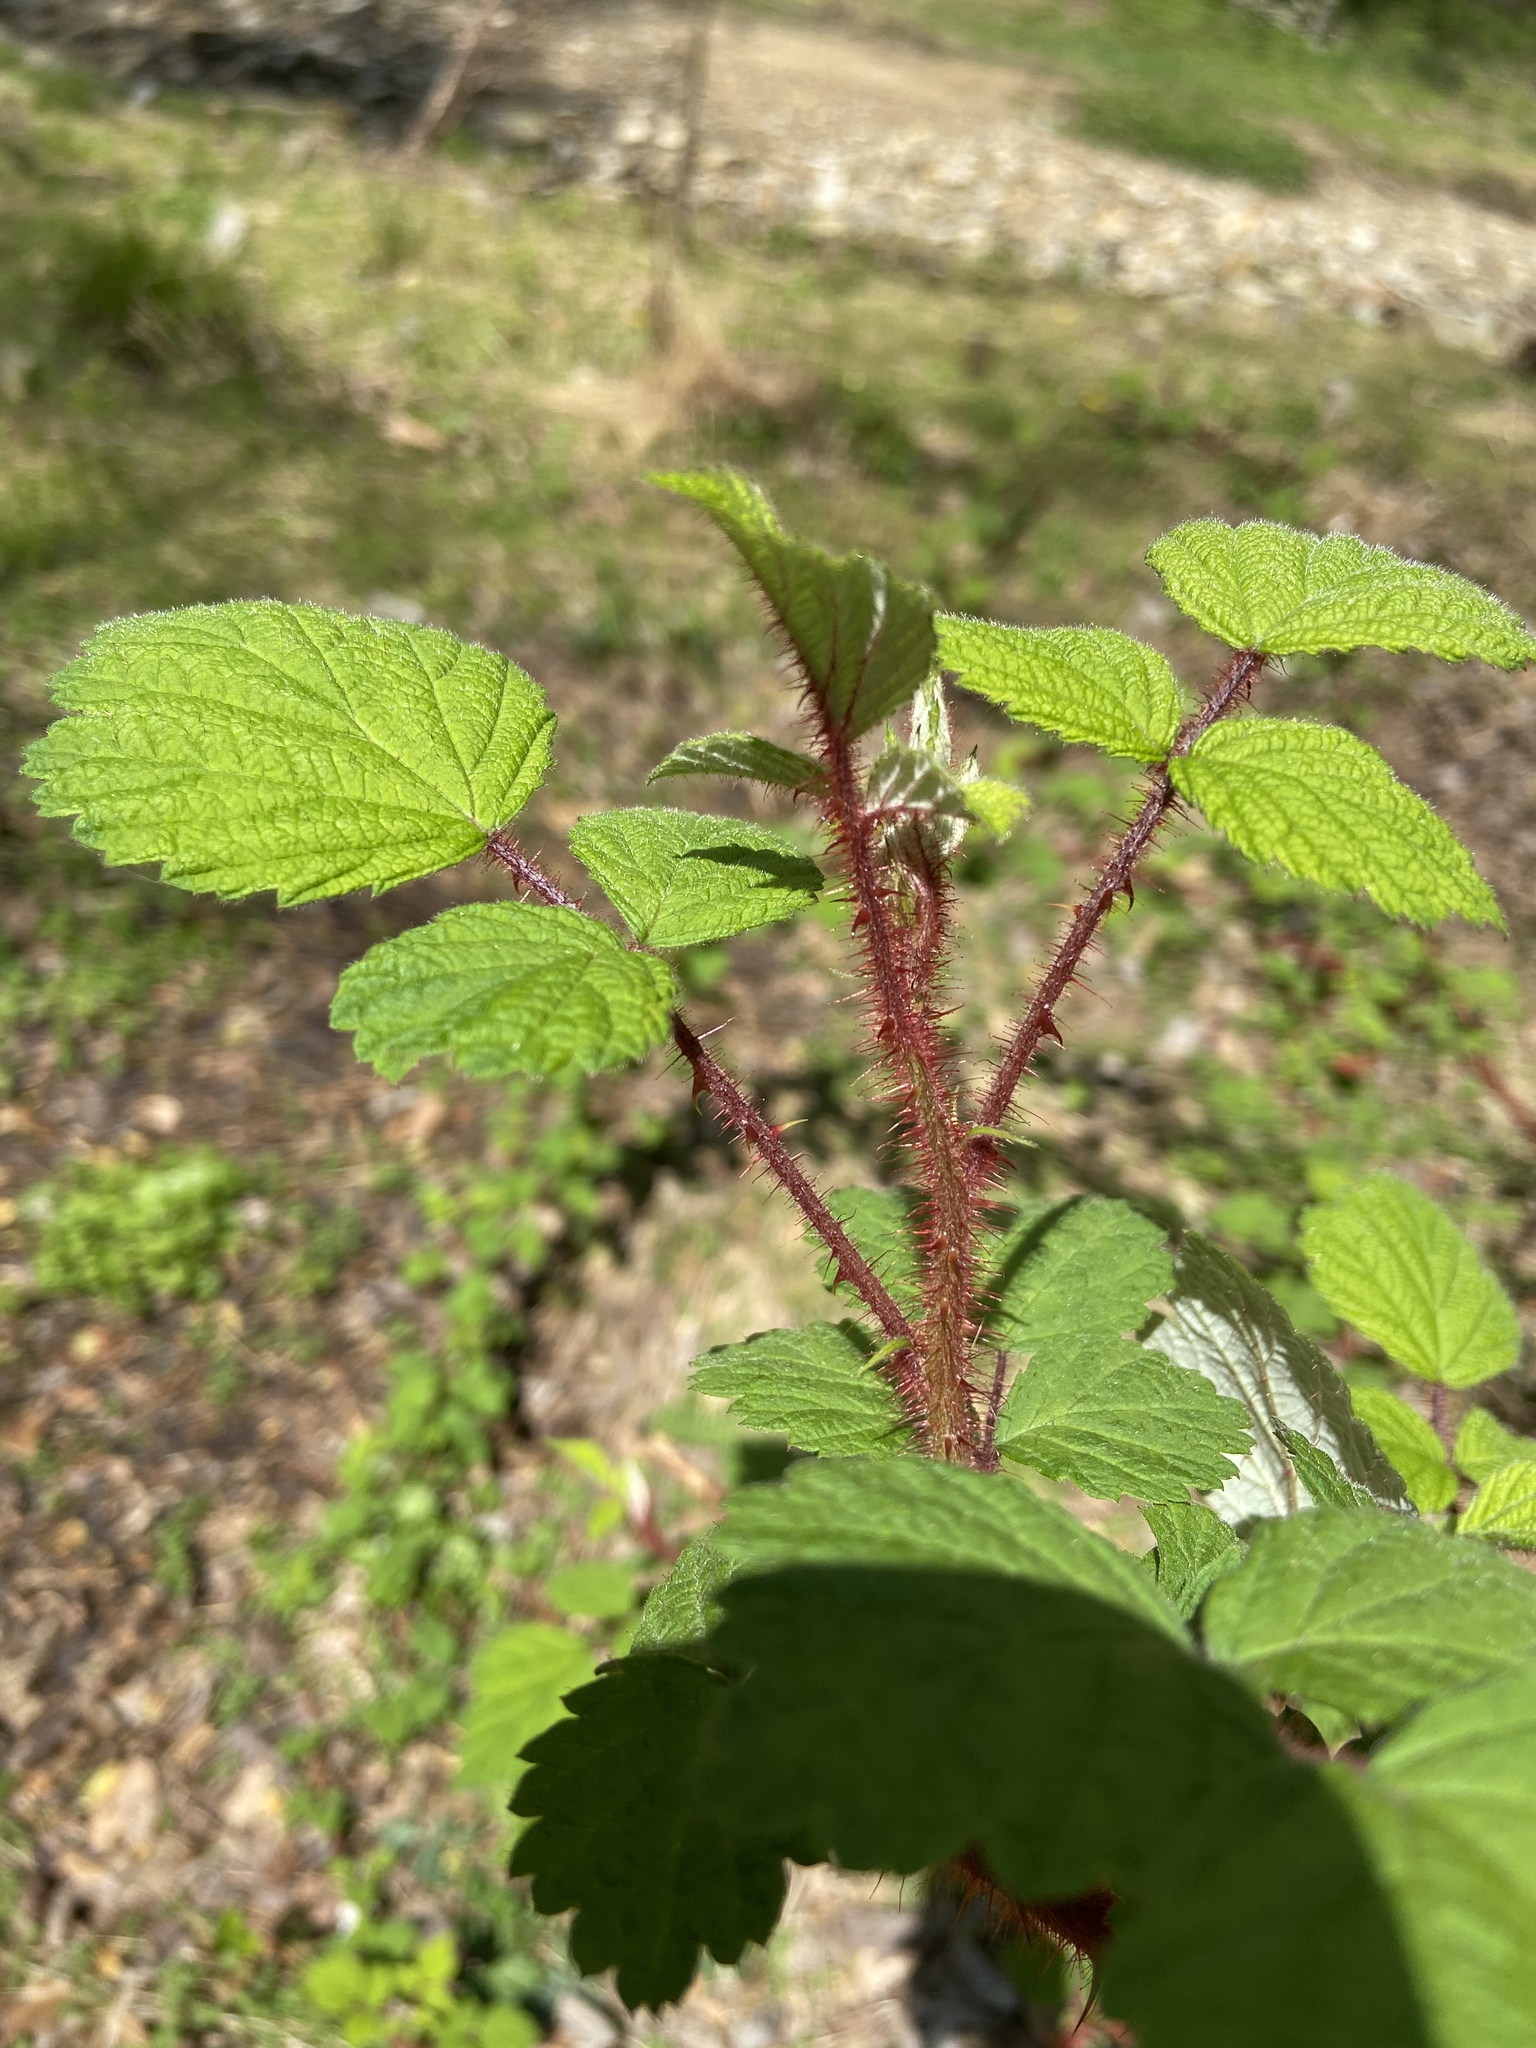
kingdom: Plantae
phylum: Tracheophyta
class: Magnoliopsida
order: Rosales
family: Rosaceae
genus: Rubus
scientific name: Rubus phoenicolasius
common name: Japanese wineberry
